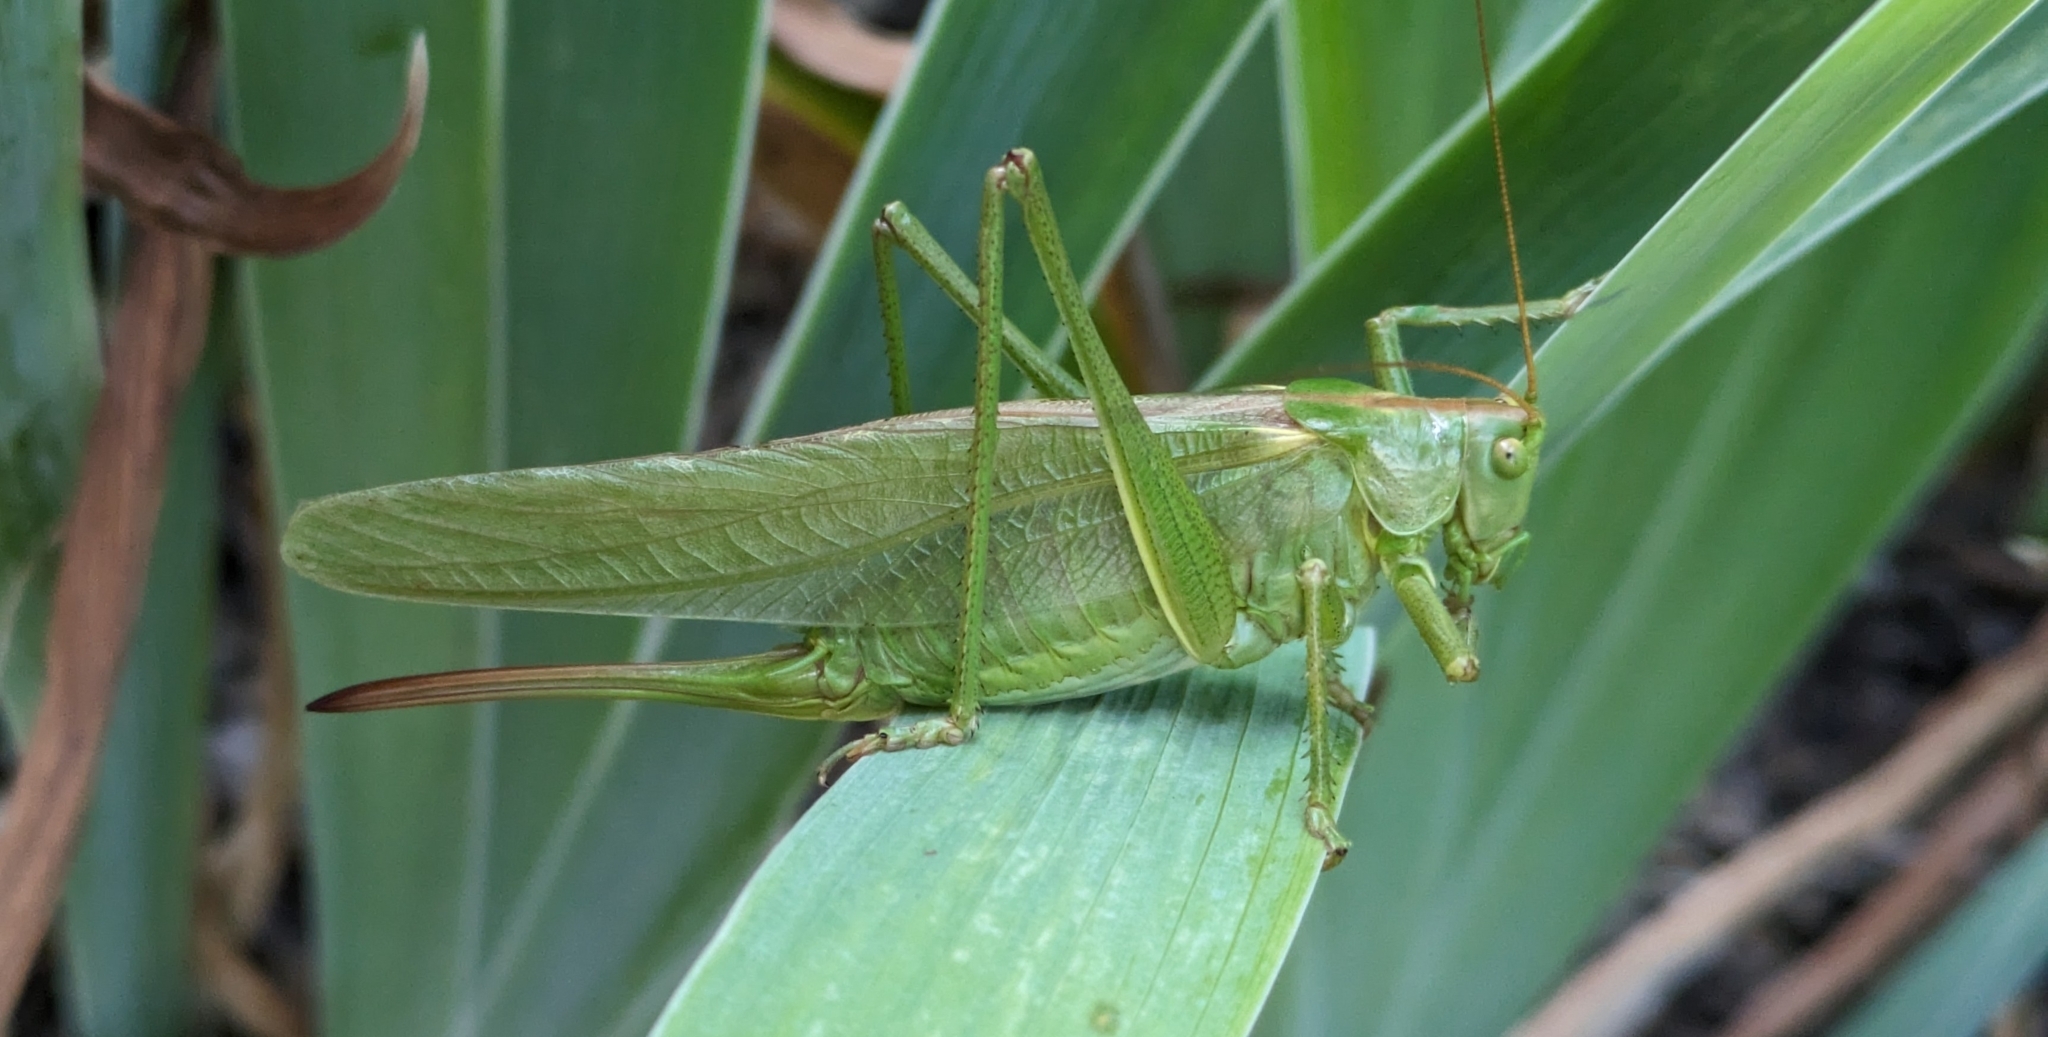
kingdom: Animalia
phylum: Arthropoda
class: Insecta
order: Orthoptera
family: Tettigoniidae
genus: Tettigonia
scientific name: Tettigonia viridissima
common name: Great green bush-cricket
